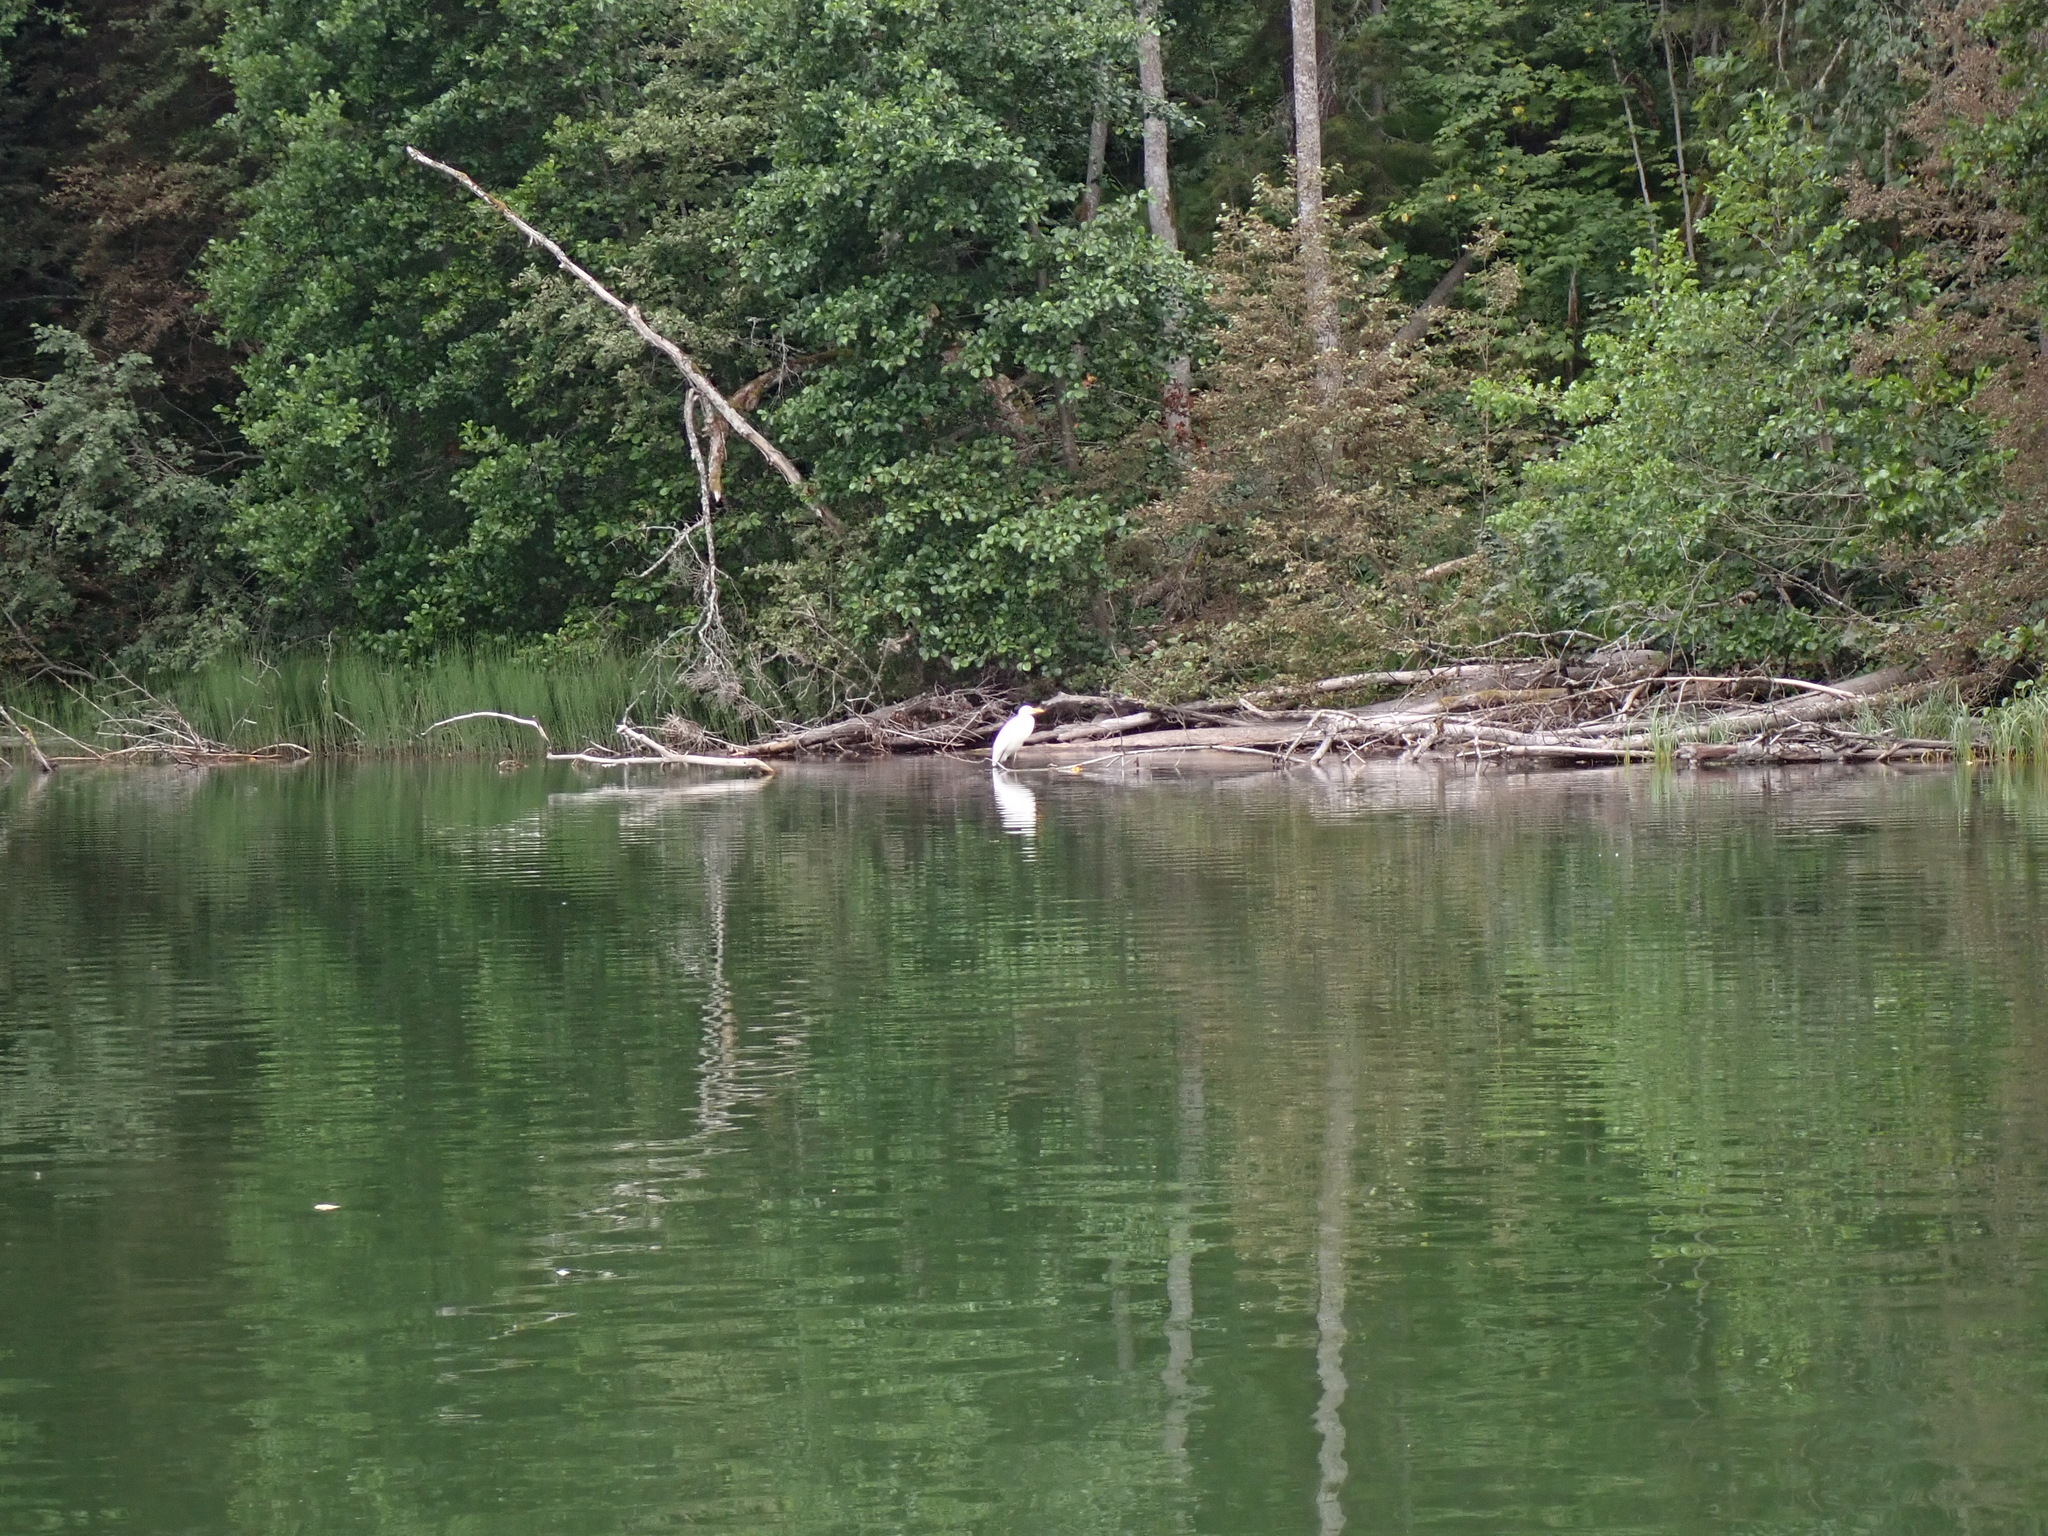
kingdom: Animalia
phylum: Chordata
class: Aves
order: Pelecaniformes
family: Ardeidae
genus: Ardea
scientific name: Ardea alba
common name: Great egret
